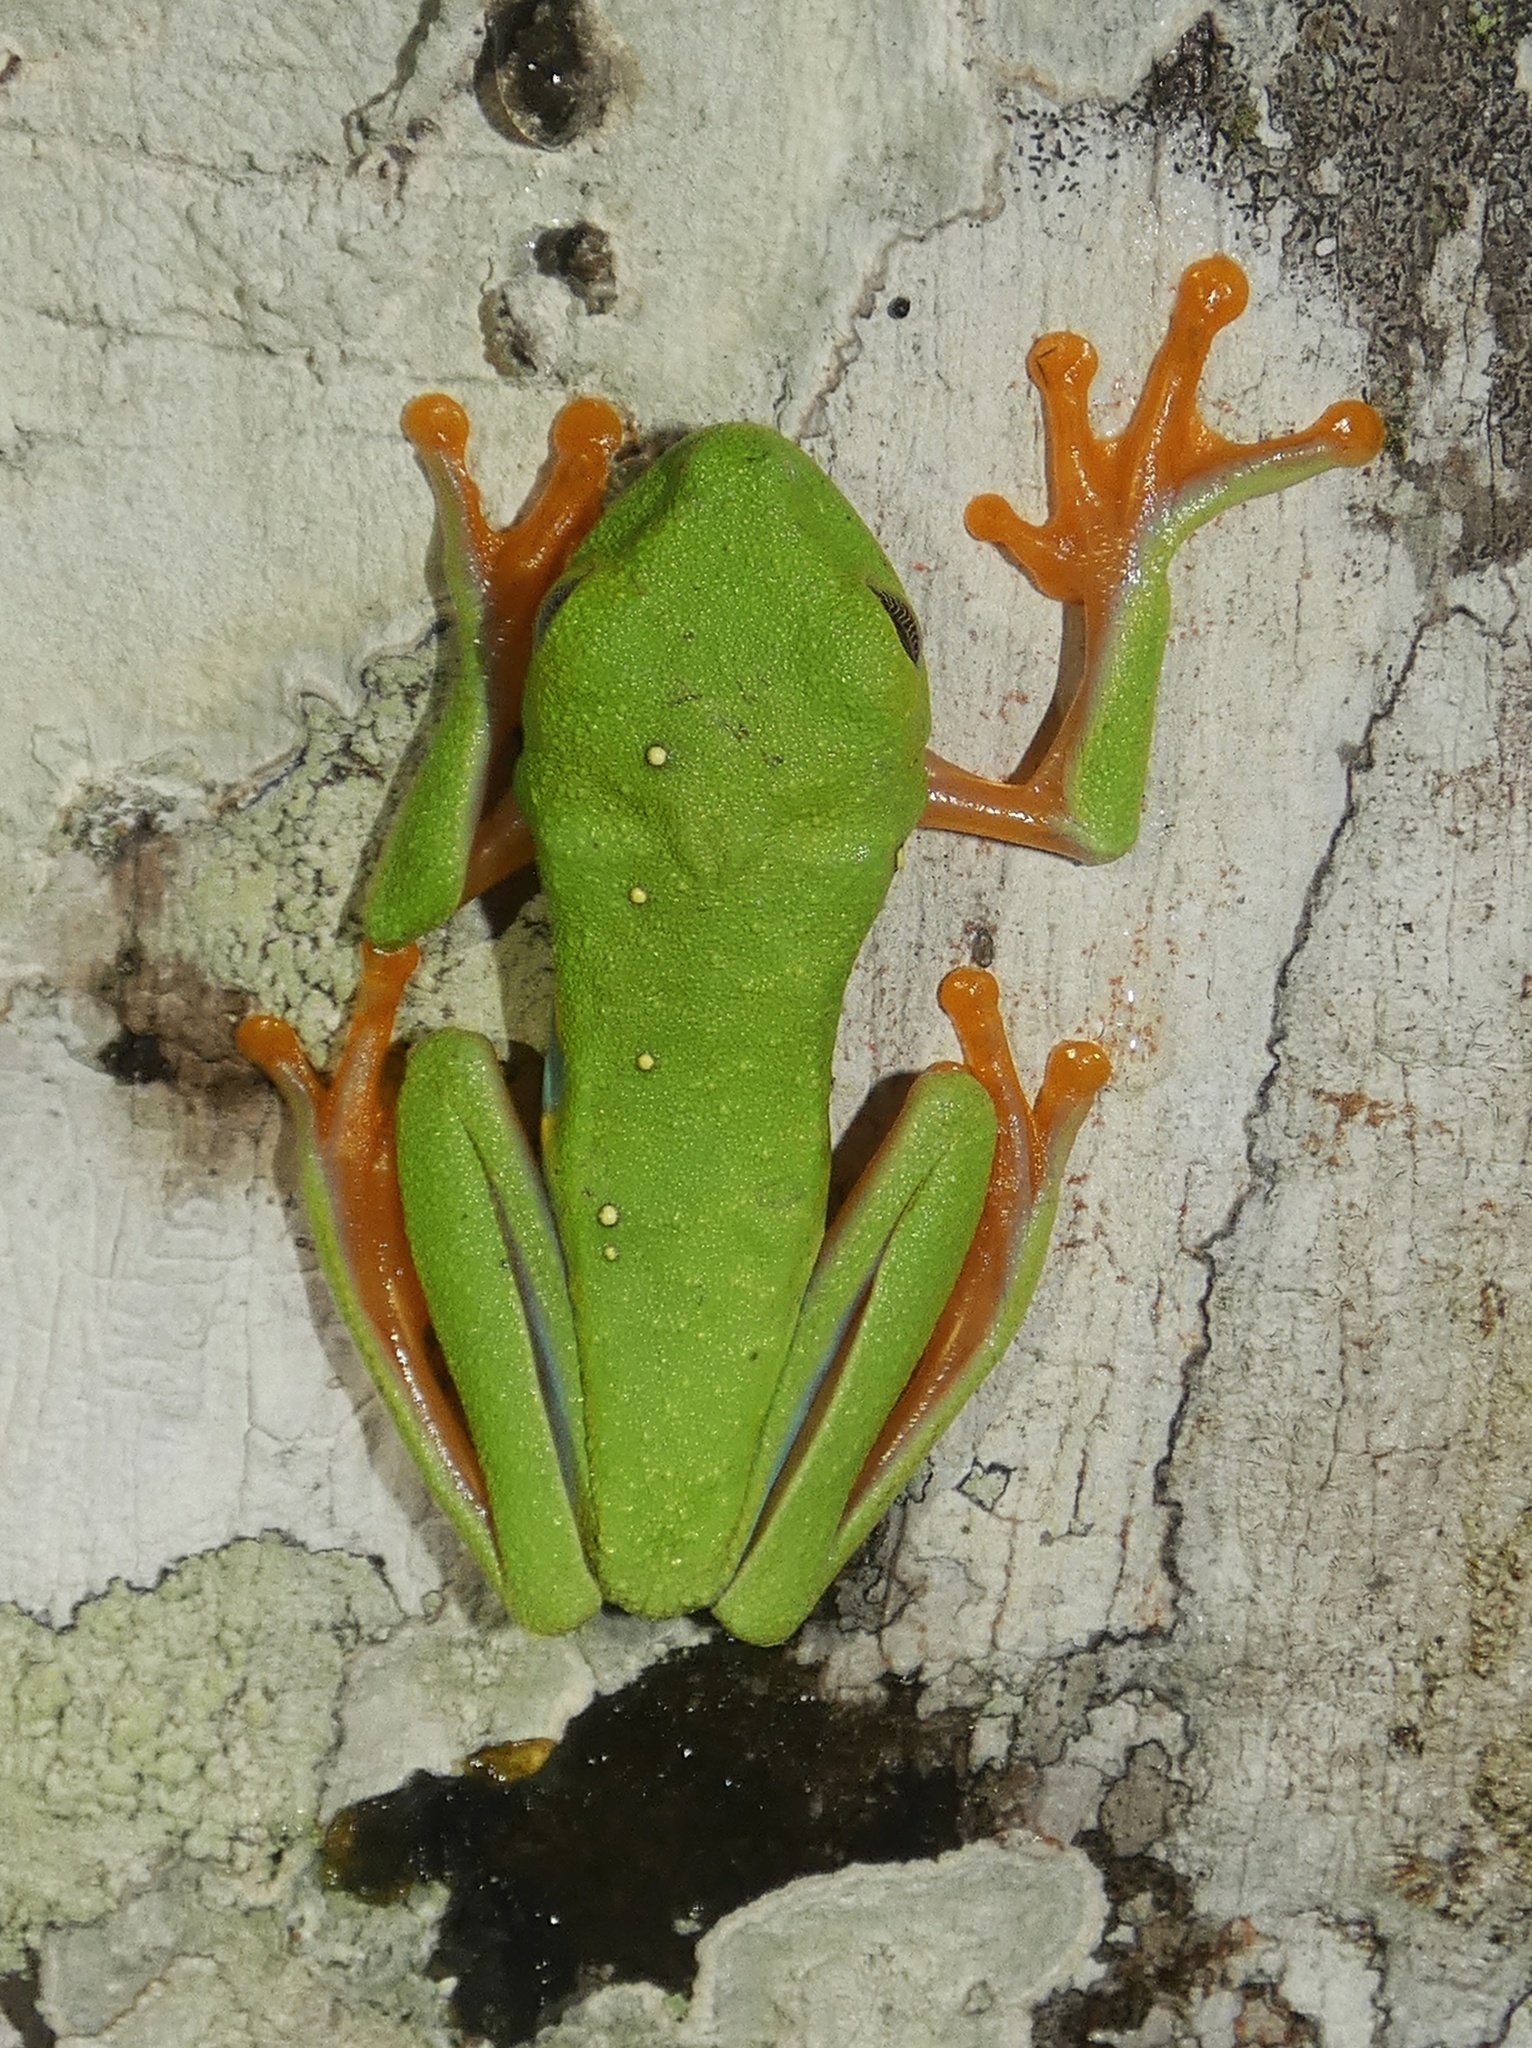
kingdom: Animalia
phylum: Chordata
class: Amphibia
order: Anura
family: Phyllomedusidae
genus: Agalychnis
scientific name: Agalychnis callidryas
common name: Red-eyed treefrog
